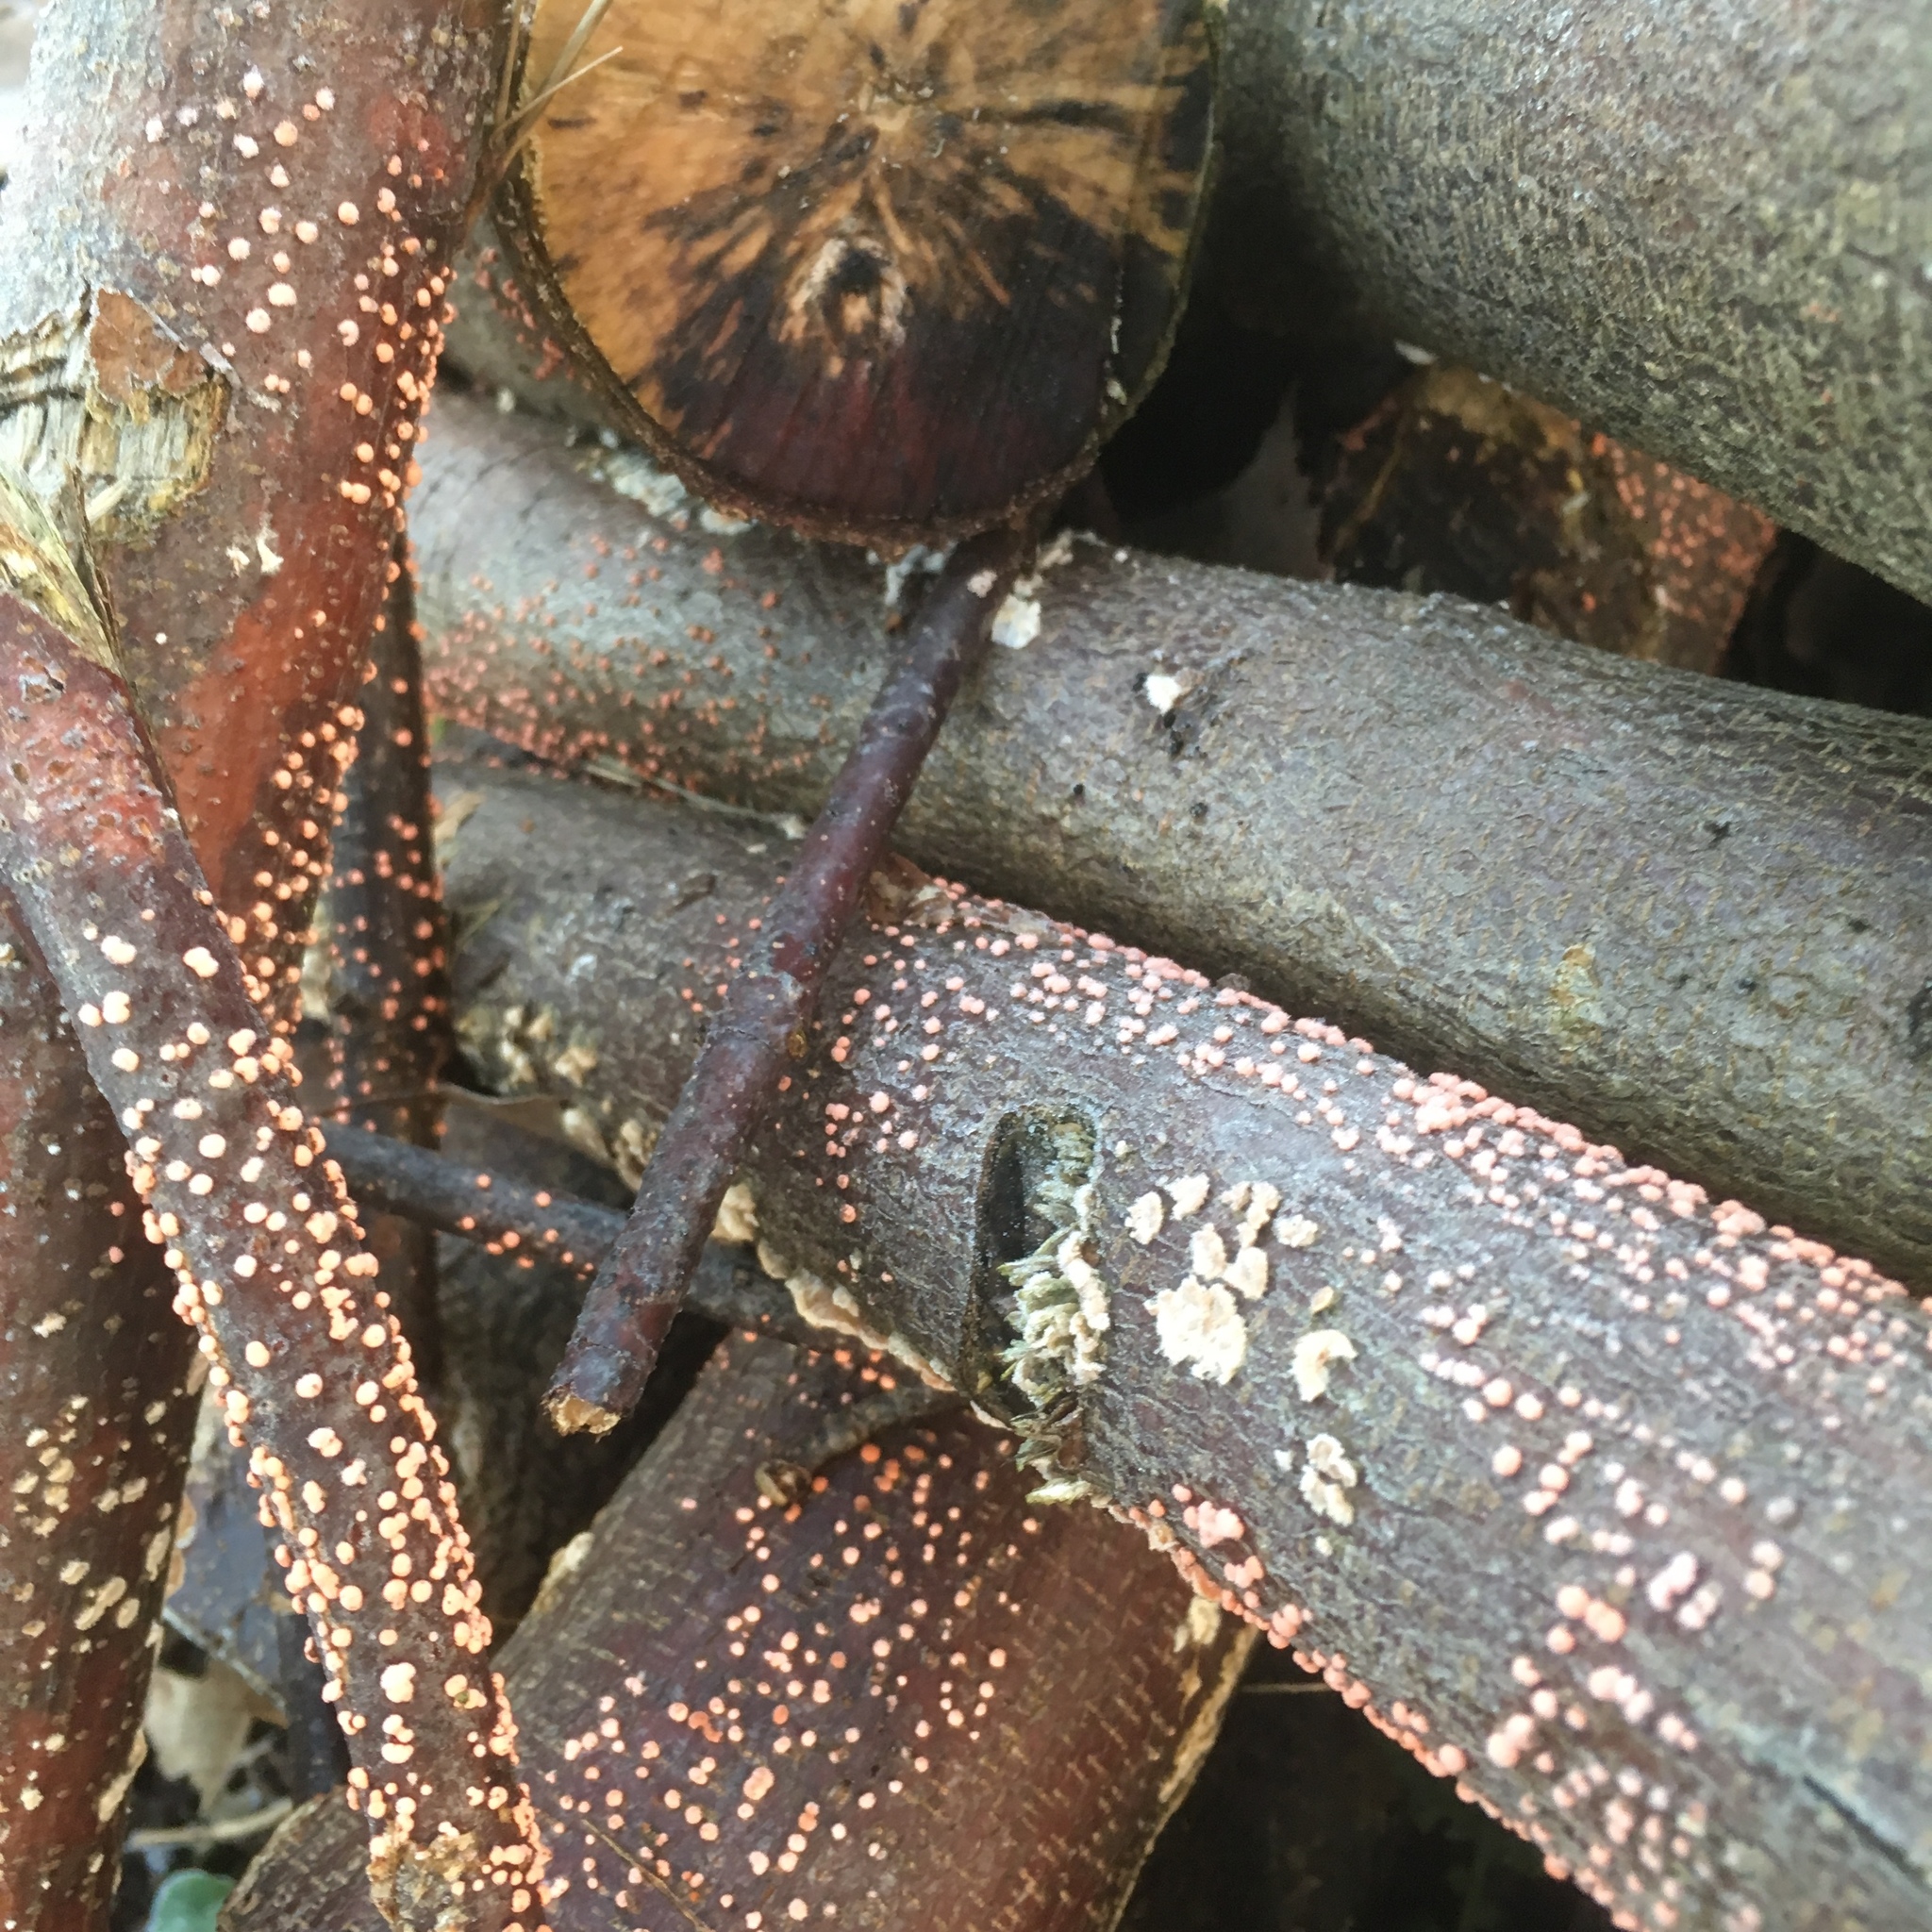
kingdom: Fungi
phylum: Ascomycota
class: Sordariomycetes
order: Hypocreales
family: Nectriaceae
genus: Nectria
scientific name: Nectria cinnabarina
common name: Coral spot
